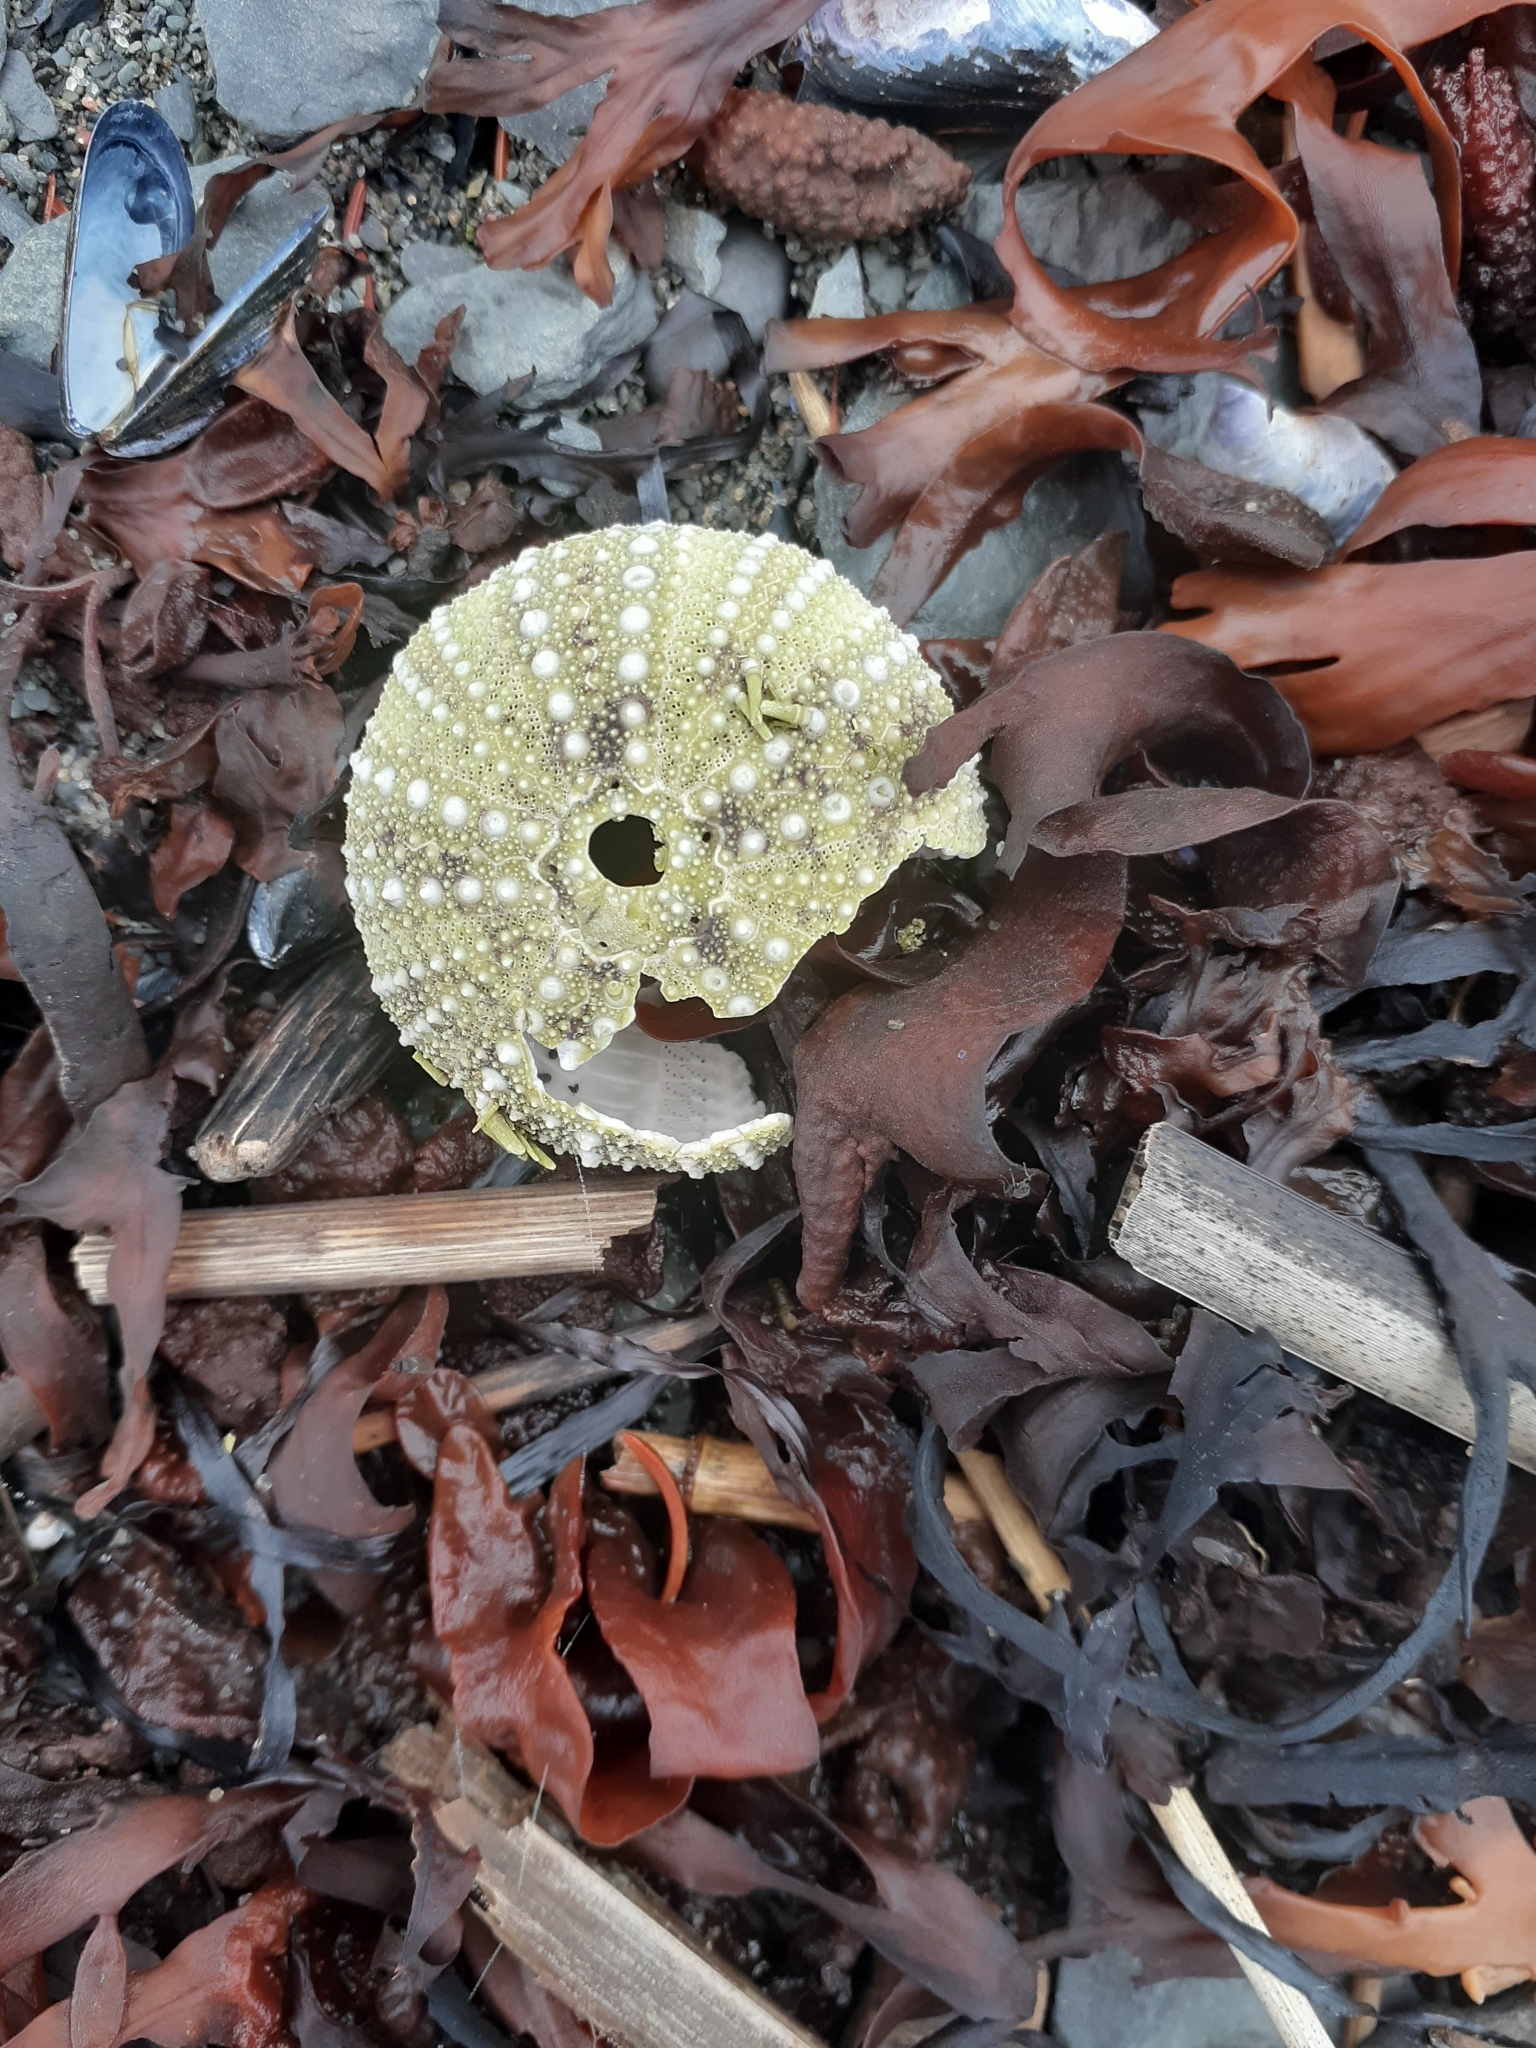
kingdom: Animalia
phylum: Echinodermata
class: Echinoidea
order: Camarodonta
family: Strongylocentrotidae
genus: Strongylocentrotus
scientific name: Strongylocentrotus droebachiensis
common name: Northern sea urchin
